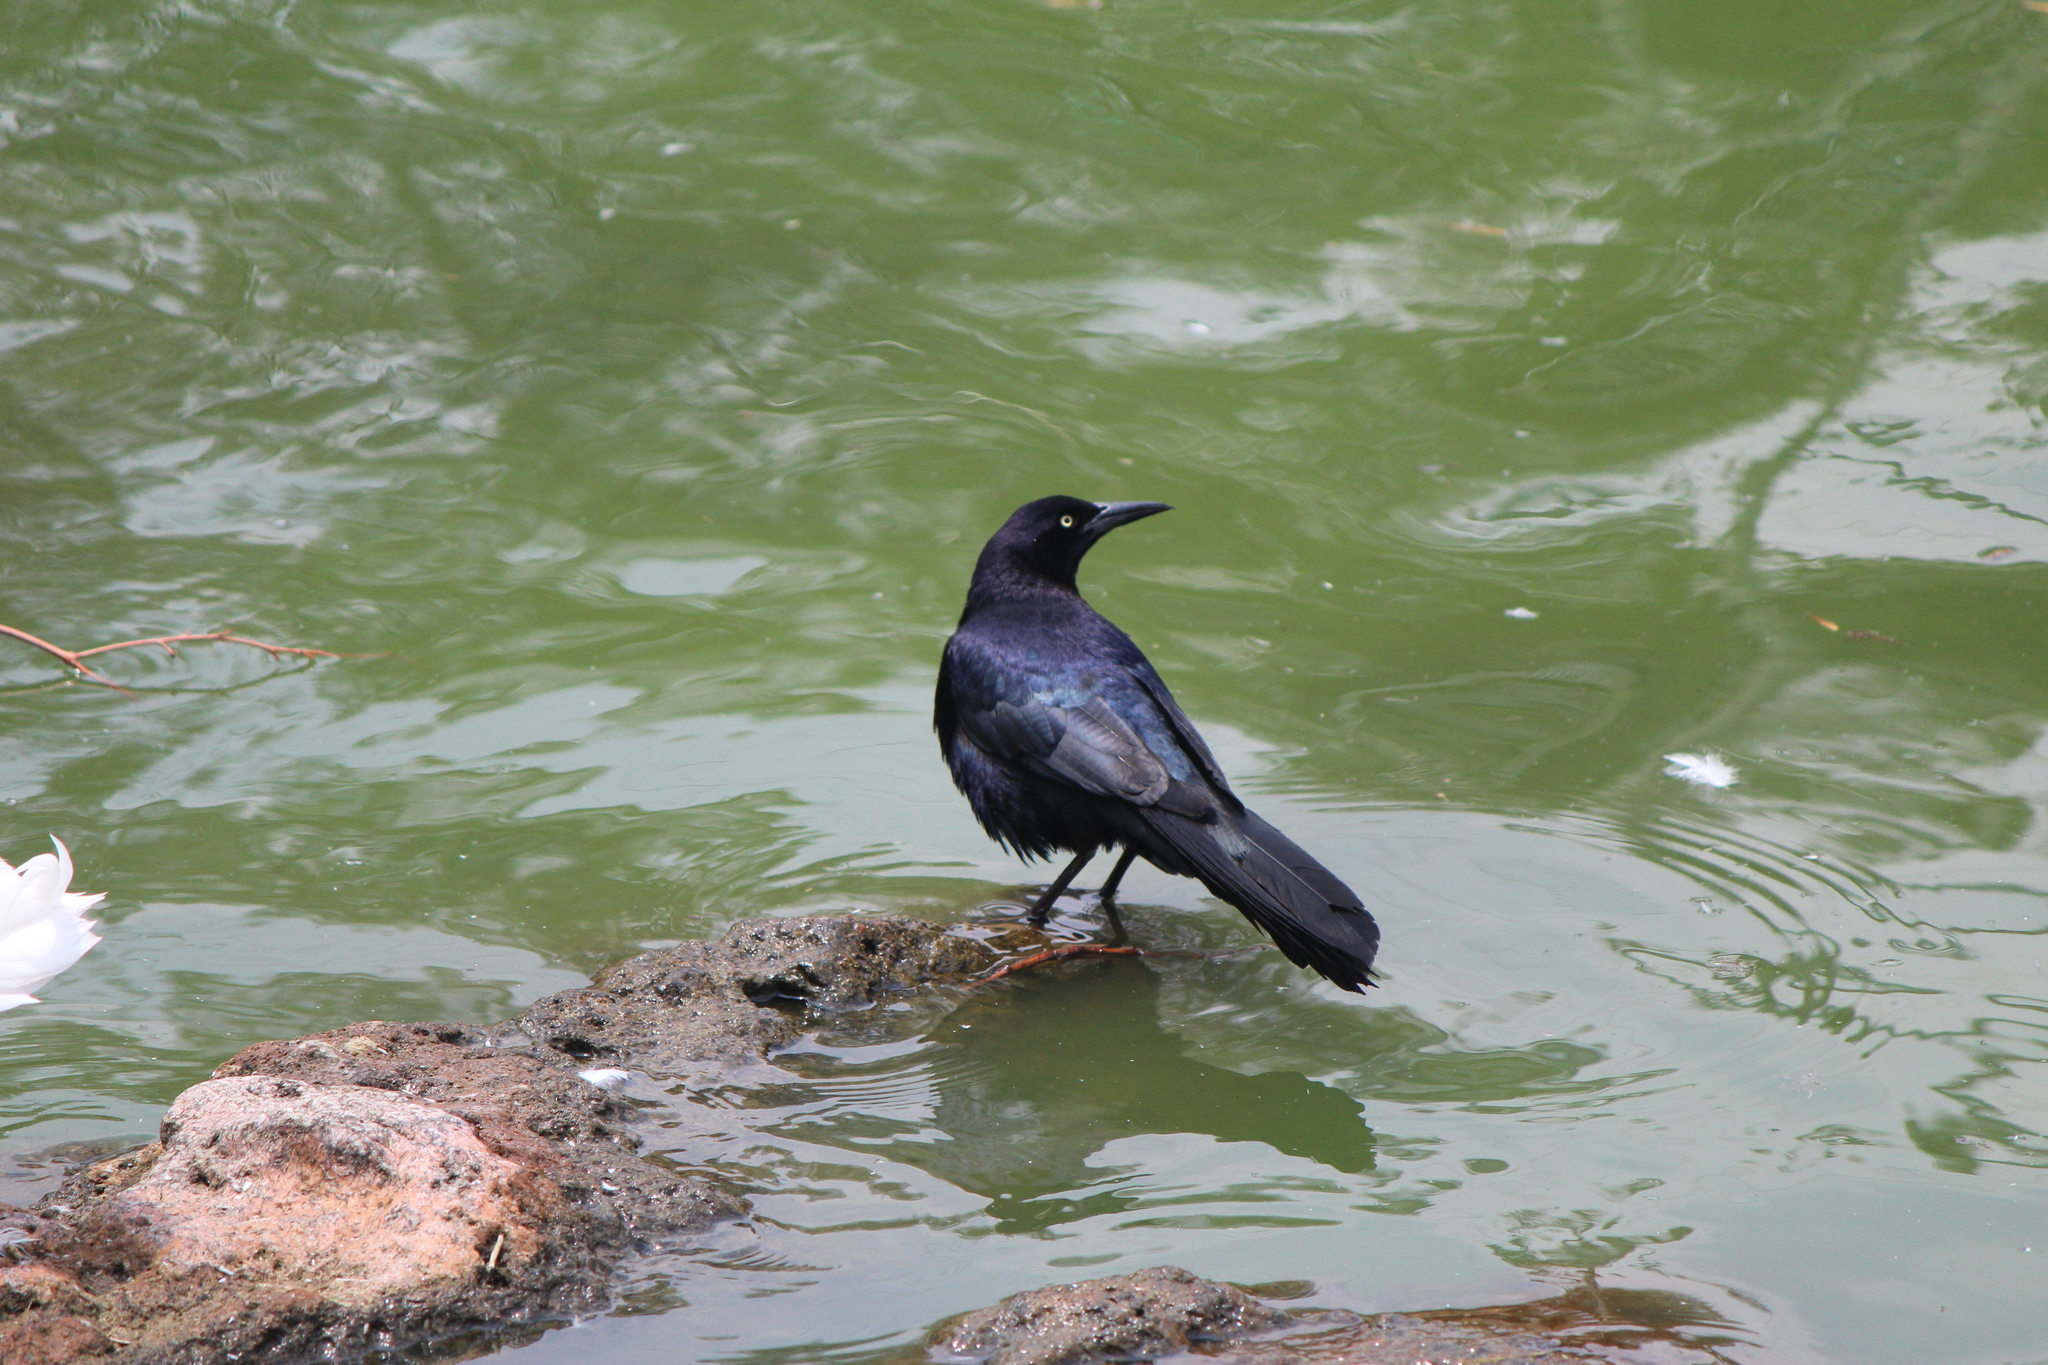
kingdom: Animalia
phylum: Chordata
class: Aves
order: Passeriformes
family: Icteridae
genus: Quiscalus
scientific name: Quiscalus mexicanus
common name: Great-tailed grackle
